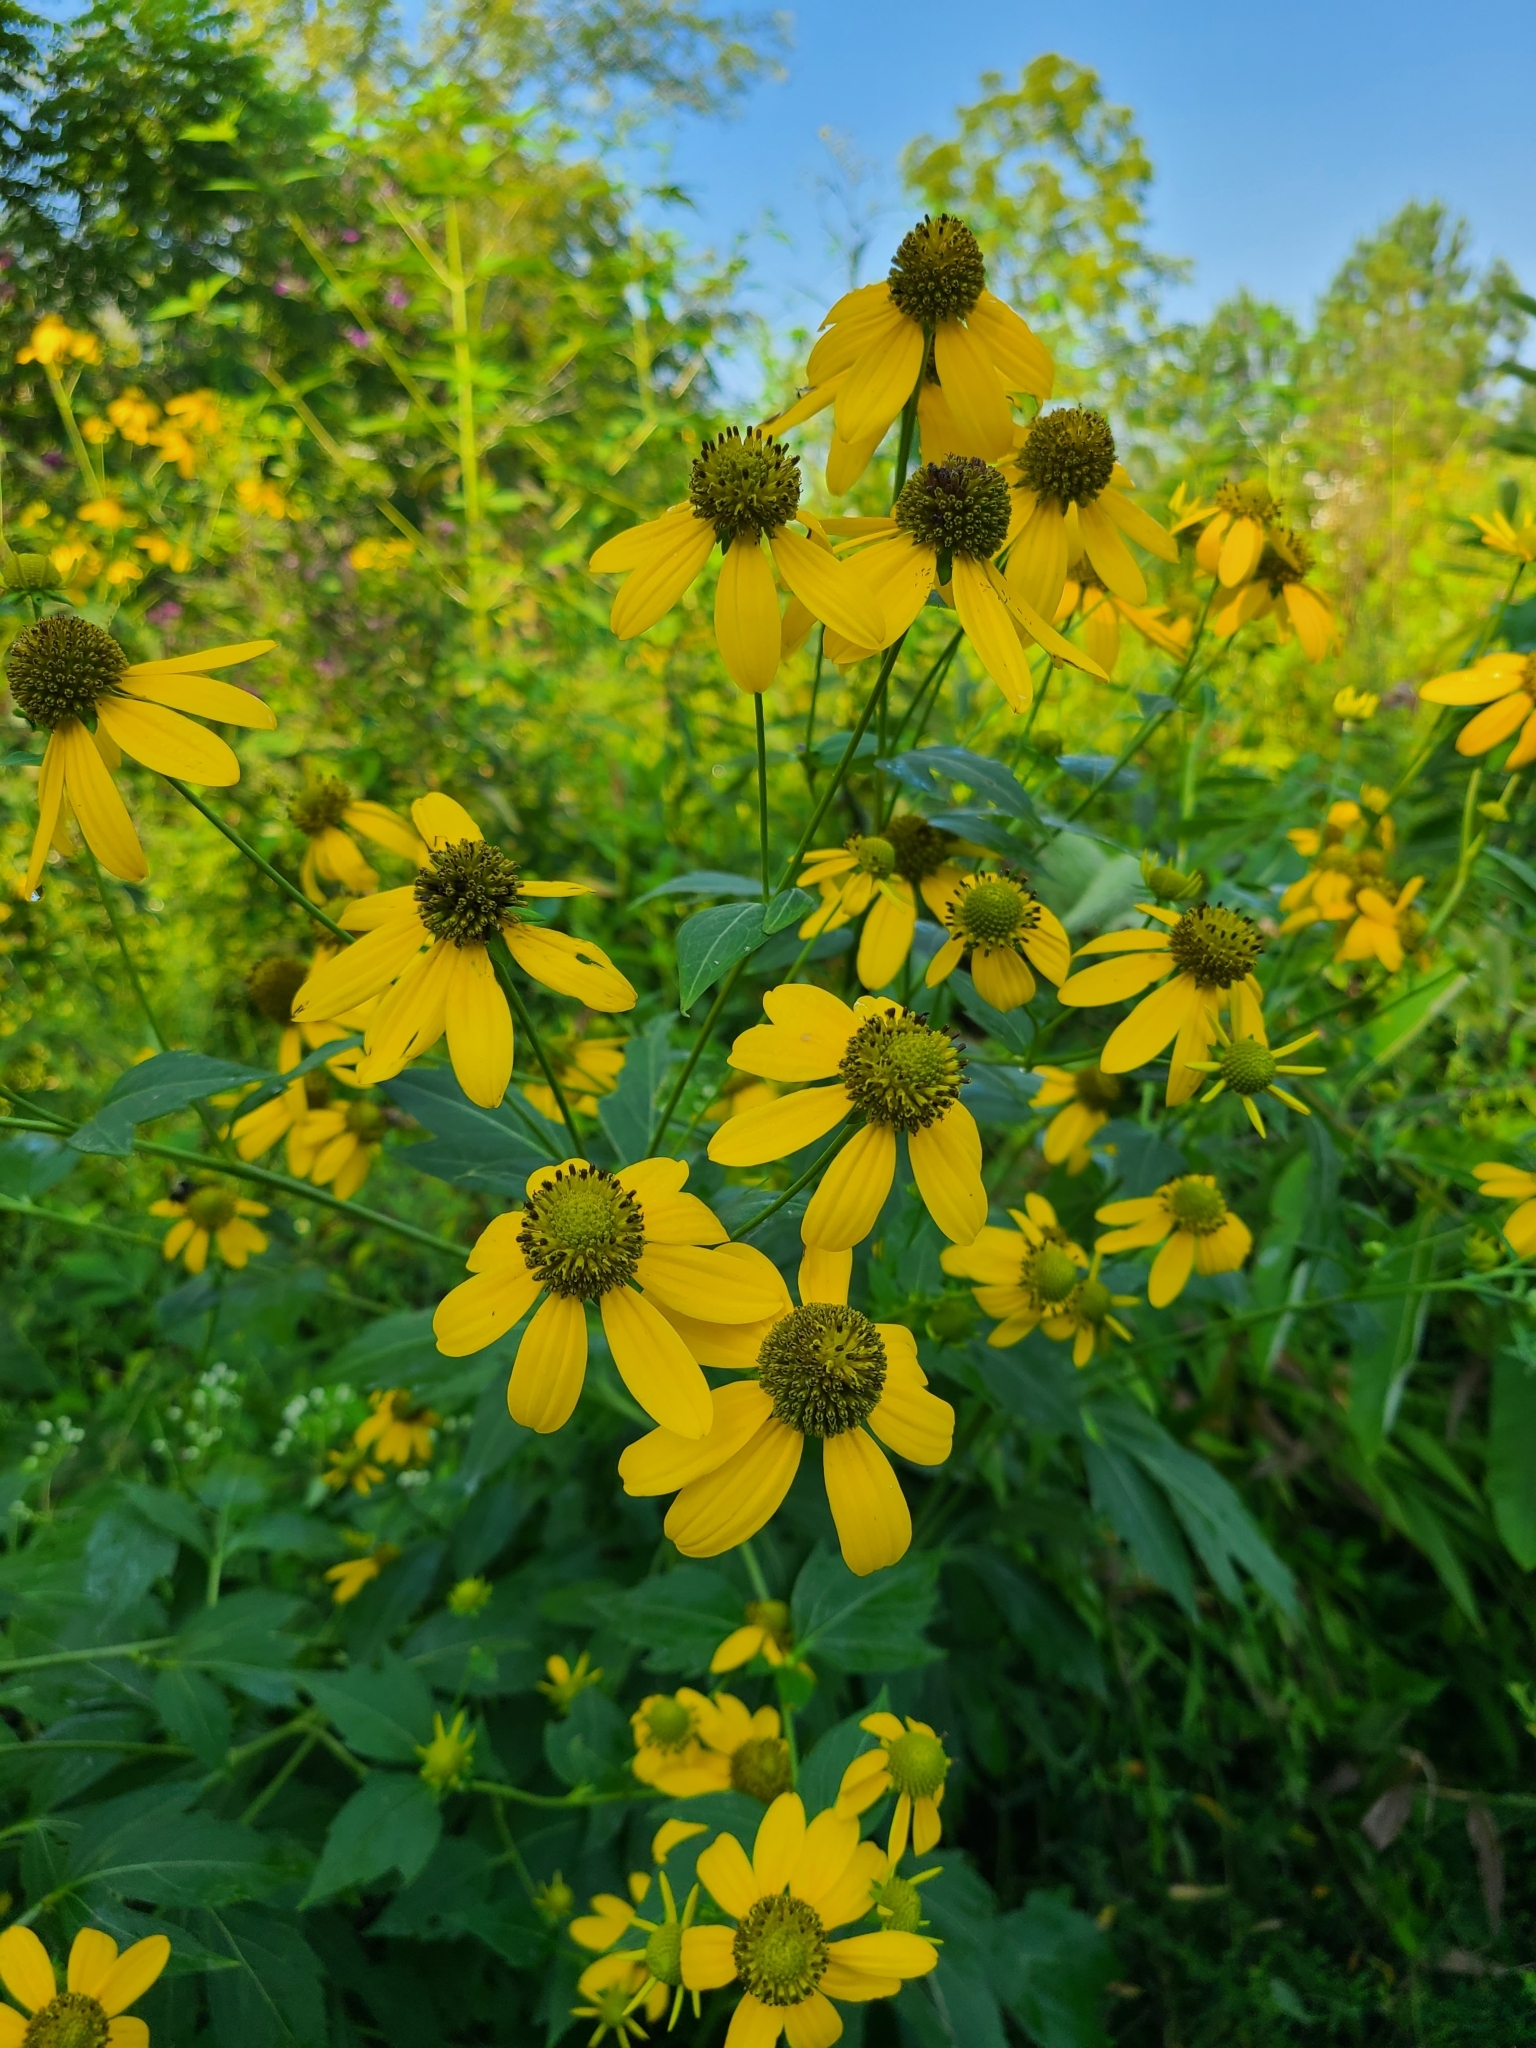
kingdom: Plantae
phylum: Tracheophyta
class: Magnoliopsida
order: Asterales
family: Asteraceae
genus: Rudbeckia
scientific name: Rudbeckia laciniata
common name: Coneflower
